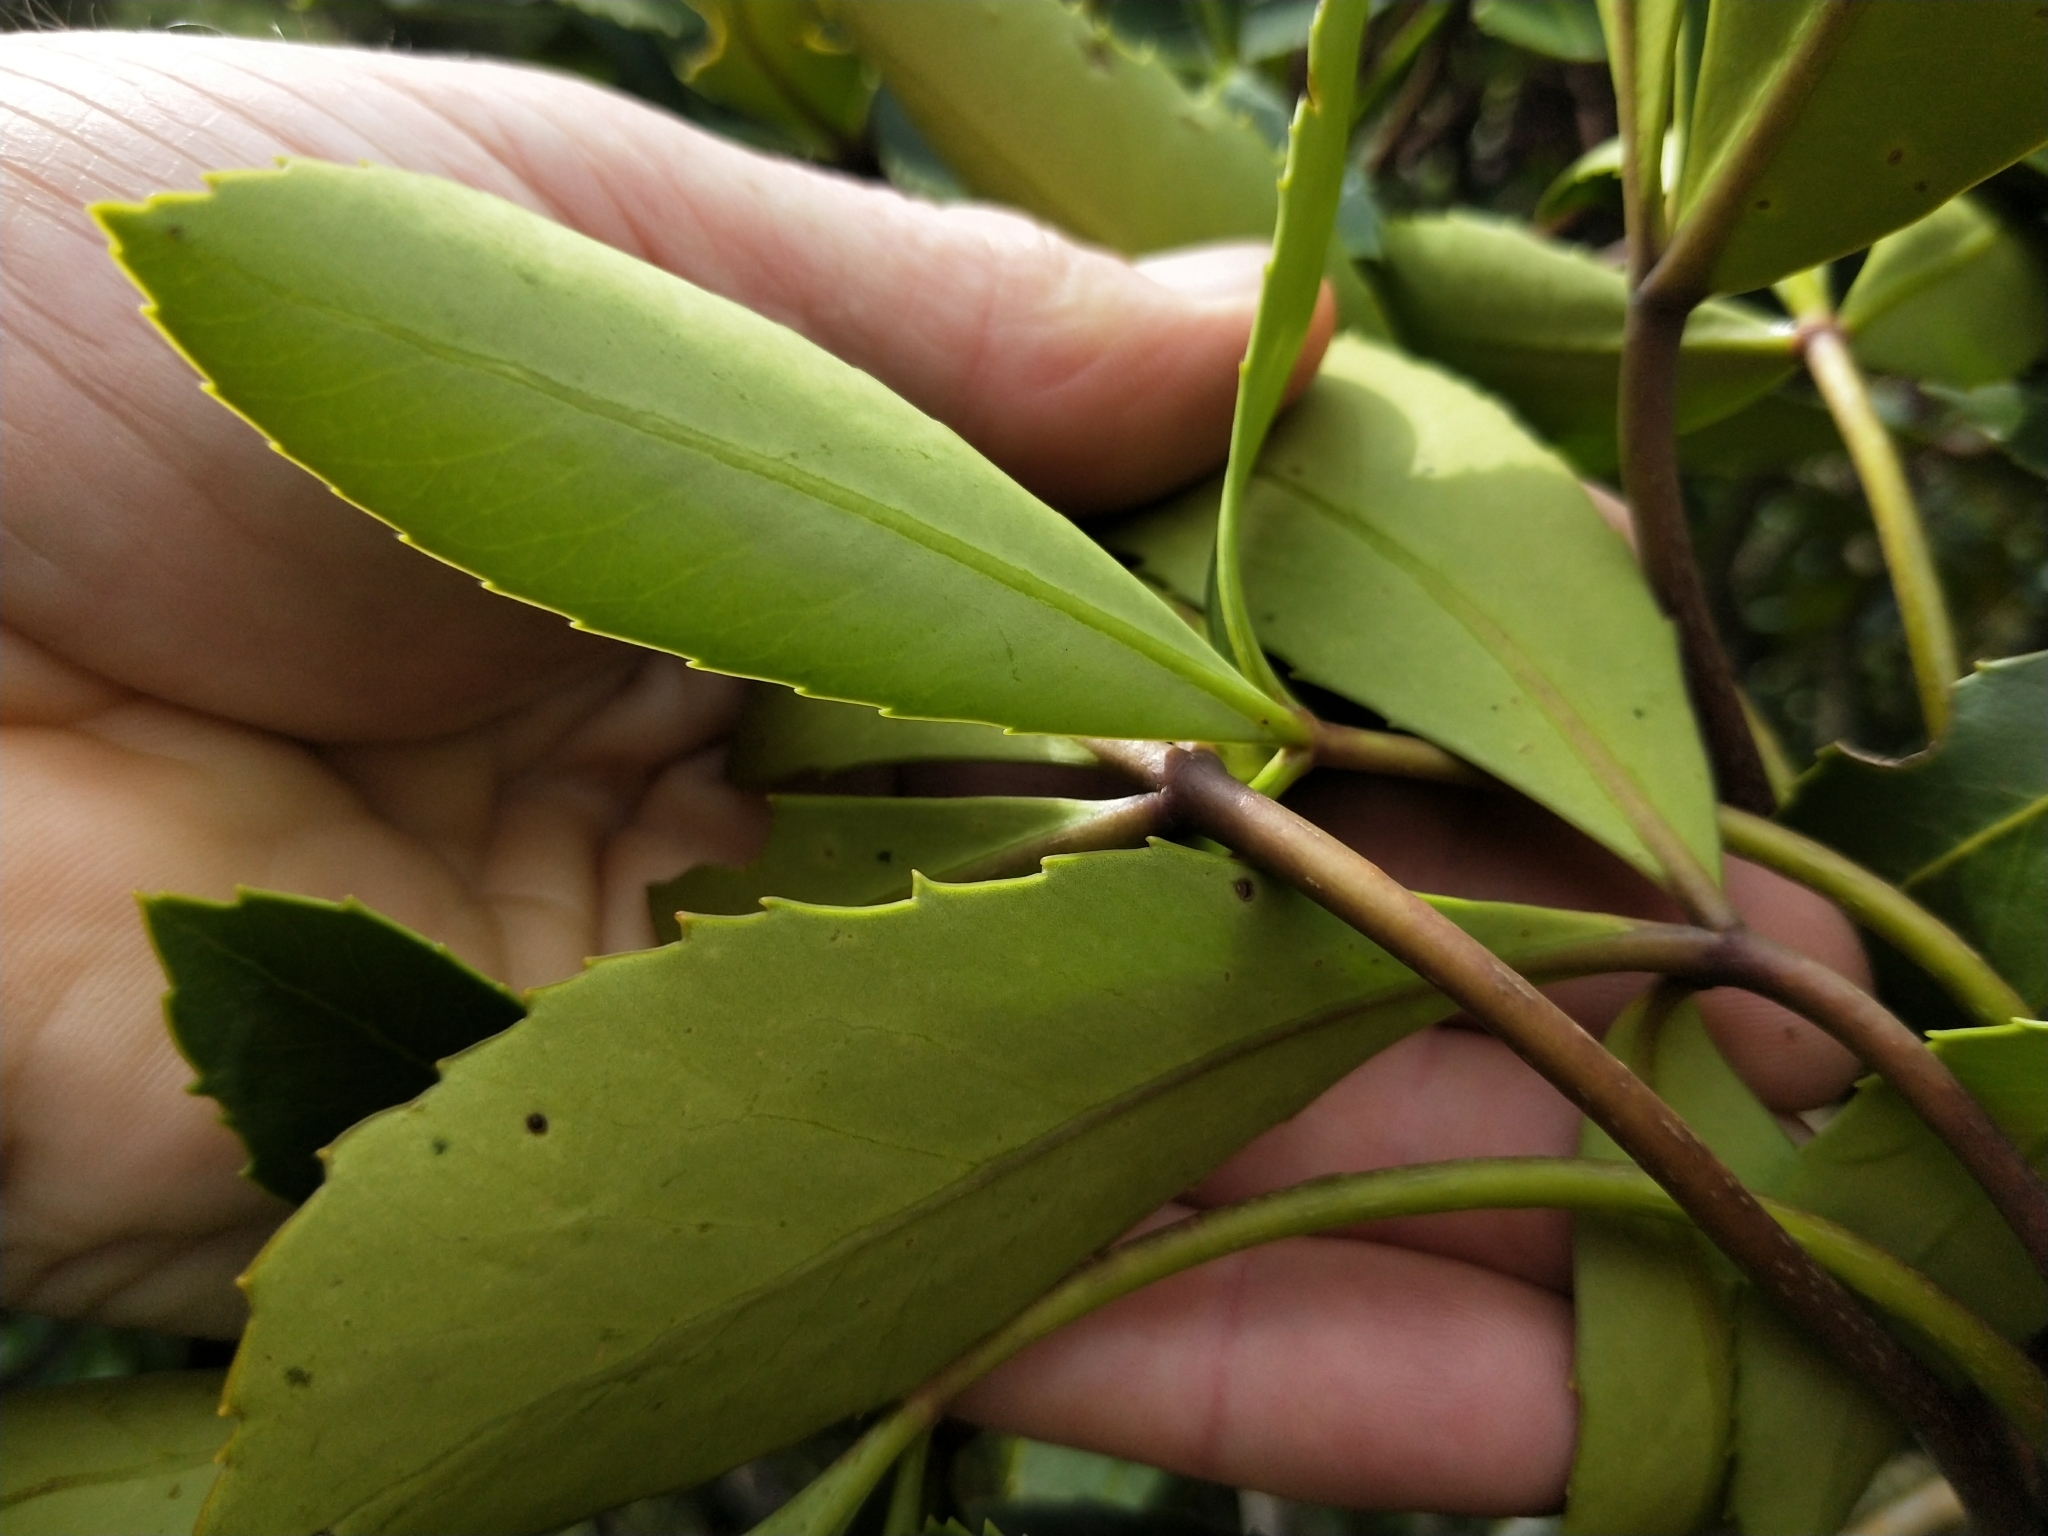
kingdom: Plantae
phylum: Tracheophyta
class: Magnoliopsida
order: Apiales
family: Araliaceae
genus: Neopanax
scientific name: Neopanax colensoi
